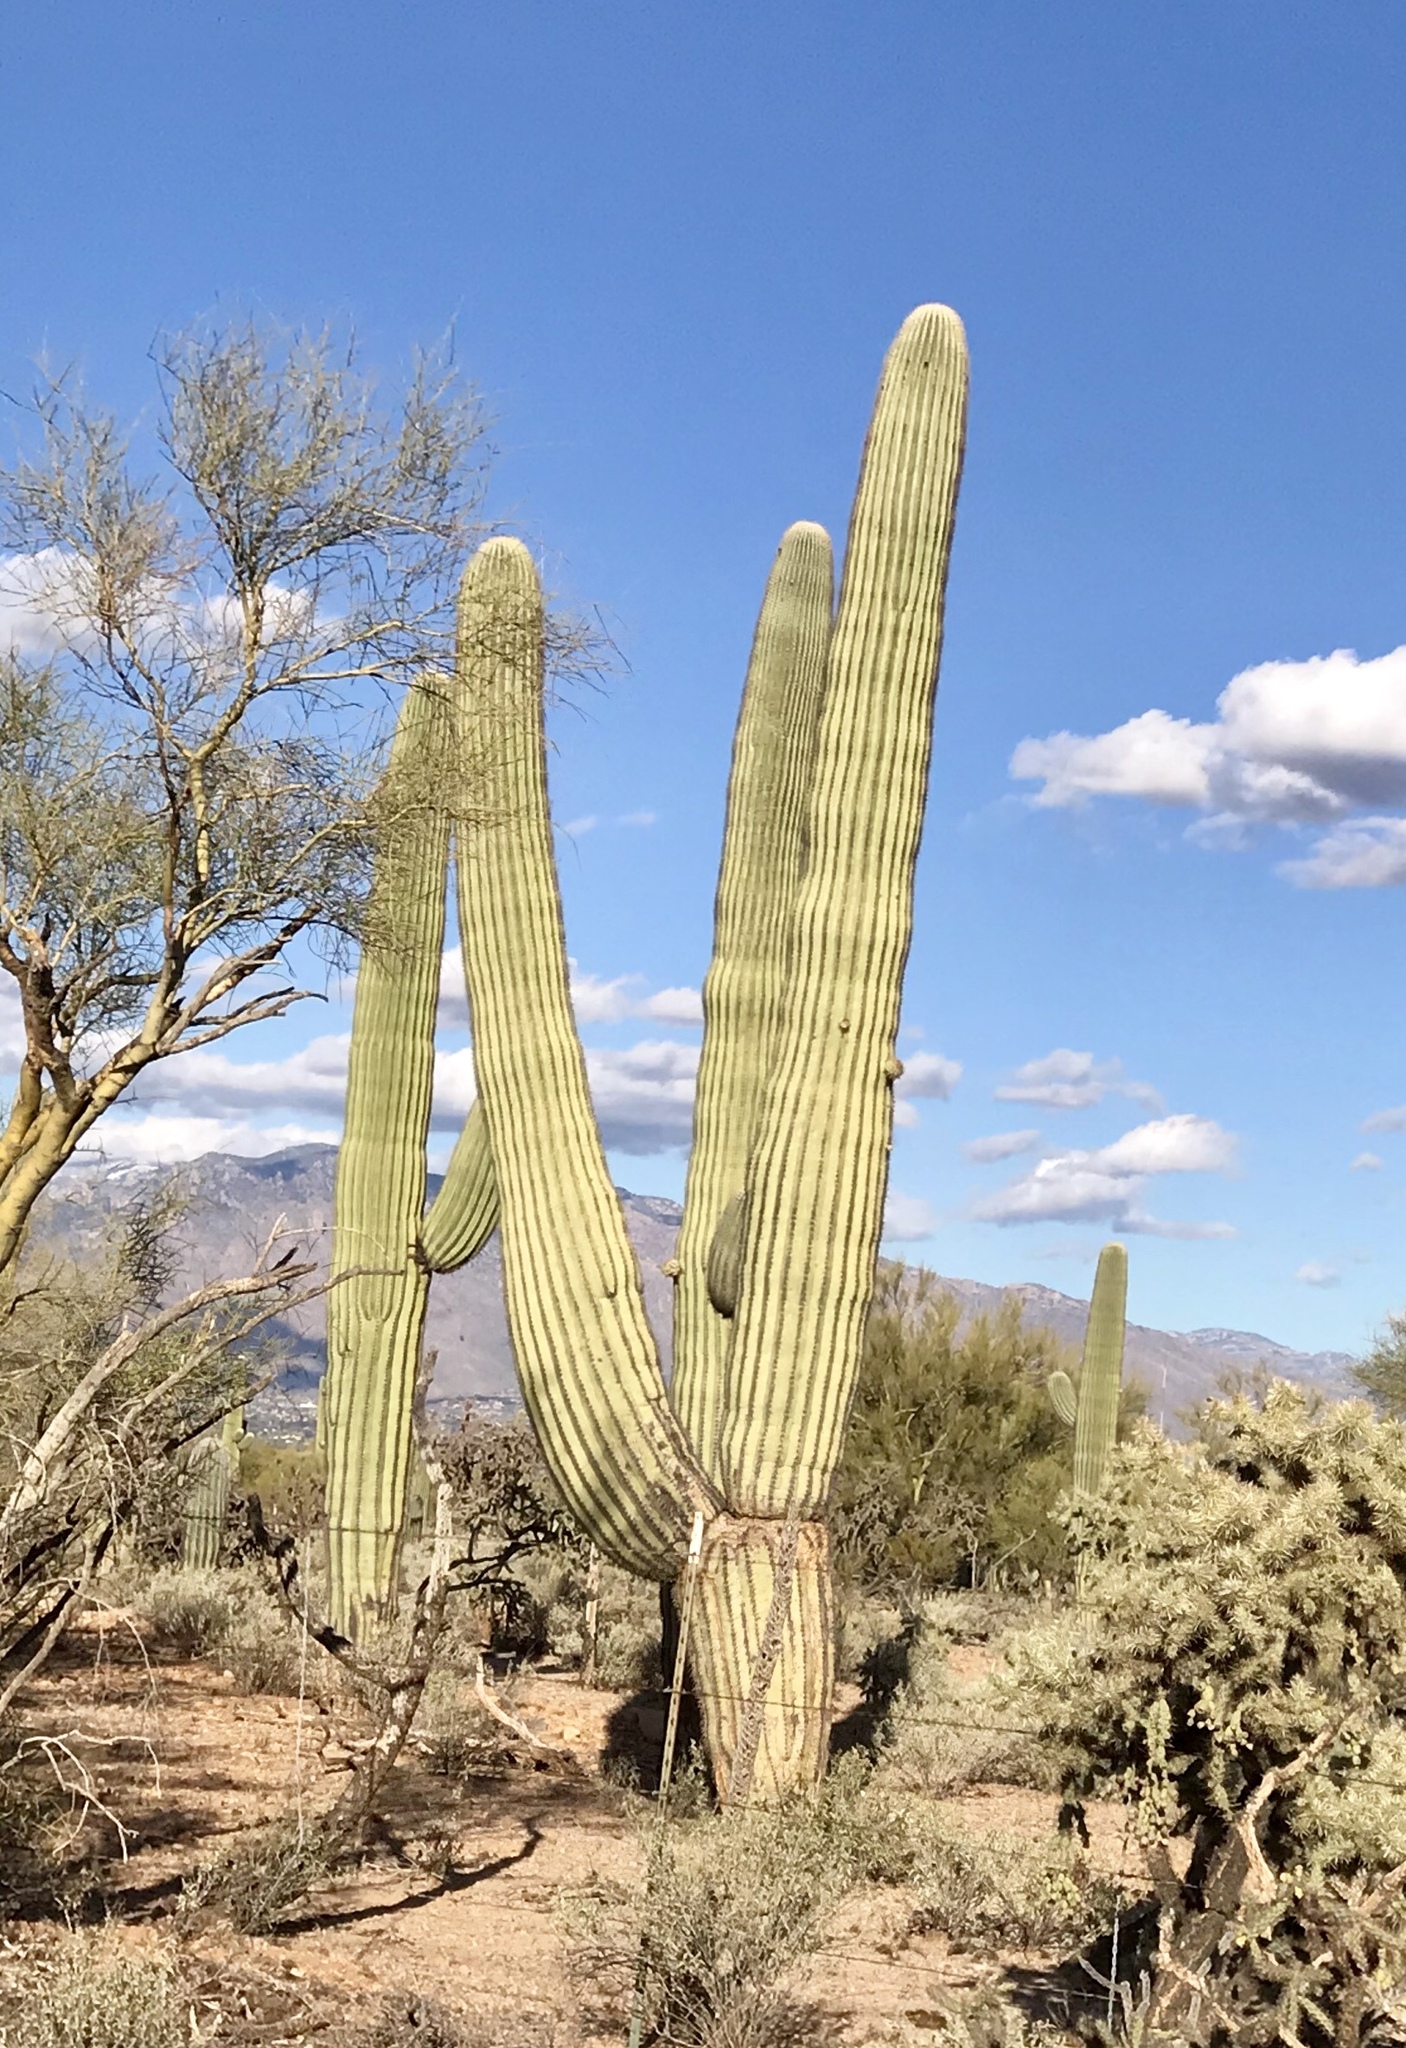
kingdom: Plantae
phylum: Tracheophyta
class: Magnoliopsida
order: Caryophyllales
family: Cactaceae
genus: Carnegiea
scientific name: Carnegiea gigantea
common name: Saguaro
